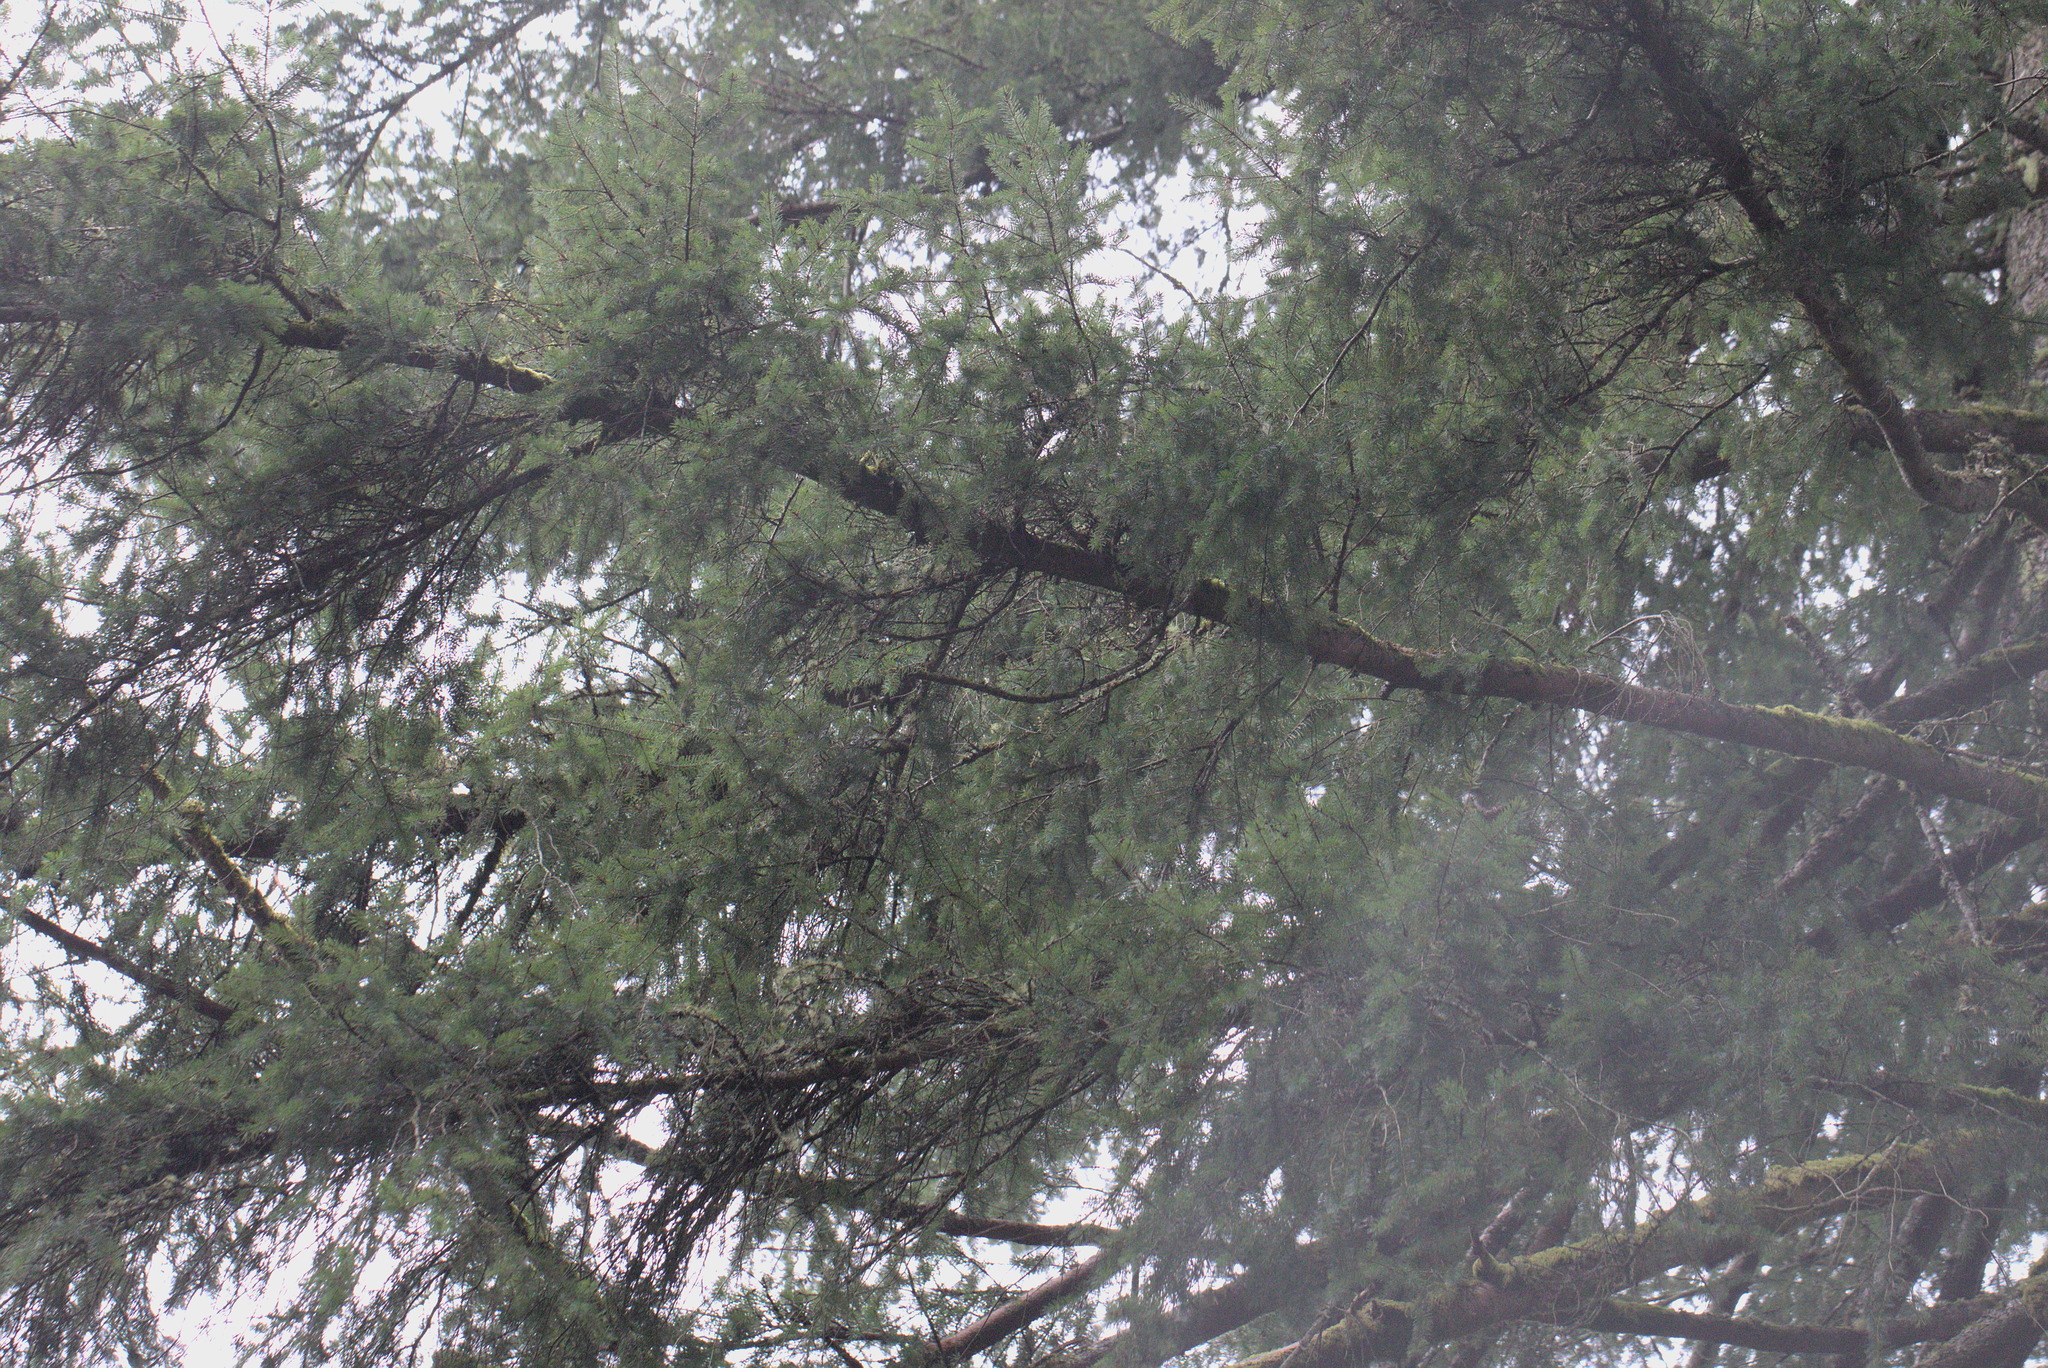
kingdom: Plantae
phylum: Tracheophyta
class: Pinopsida
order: Pinales
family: Pinaceae
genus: Pseudotsuga
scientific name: Pseudotsuga menziesii
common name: Douglas fir
